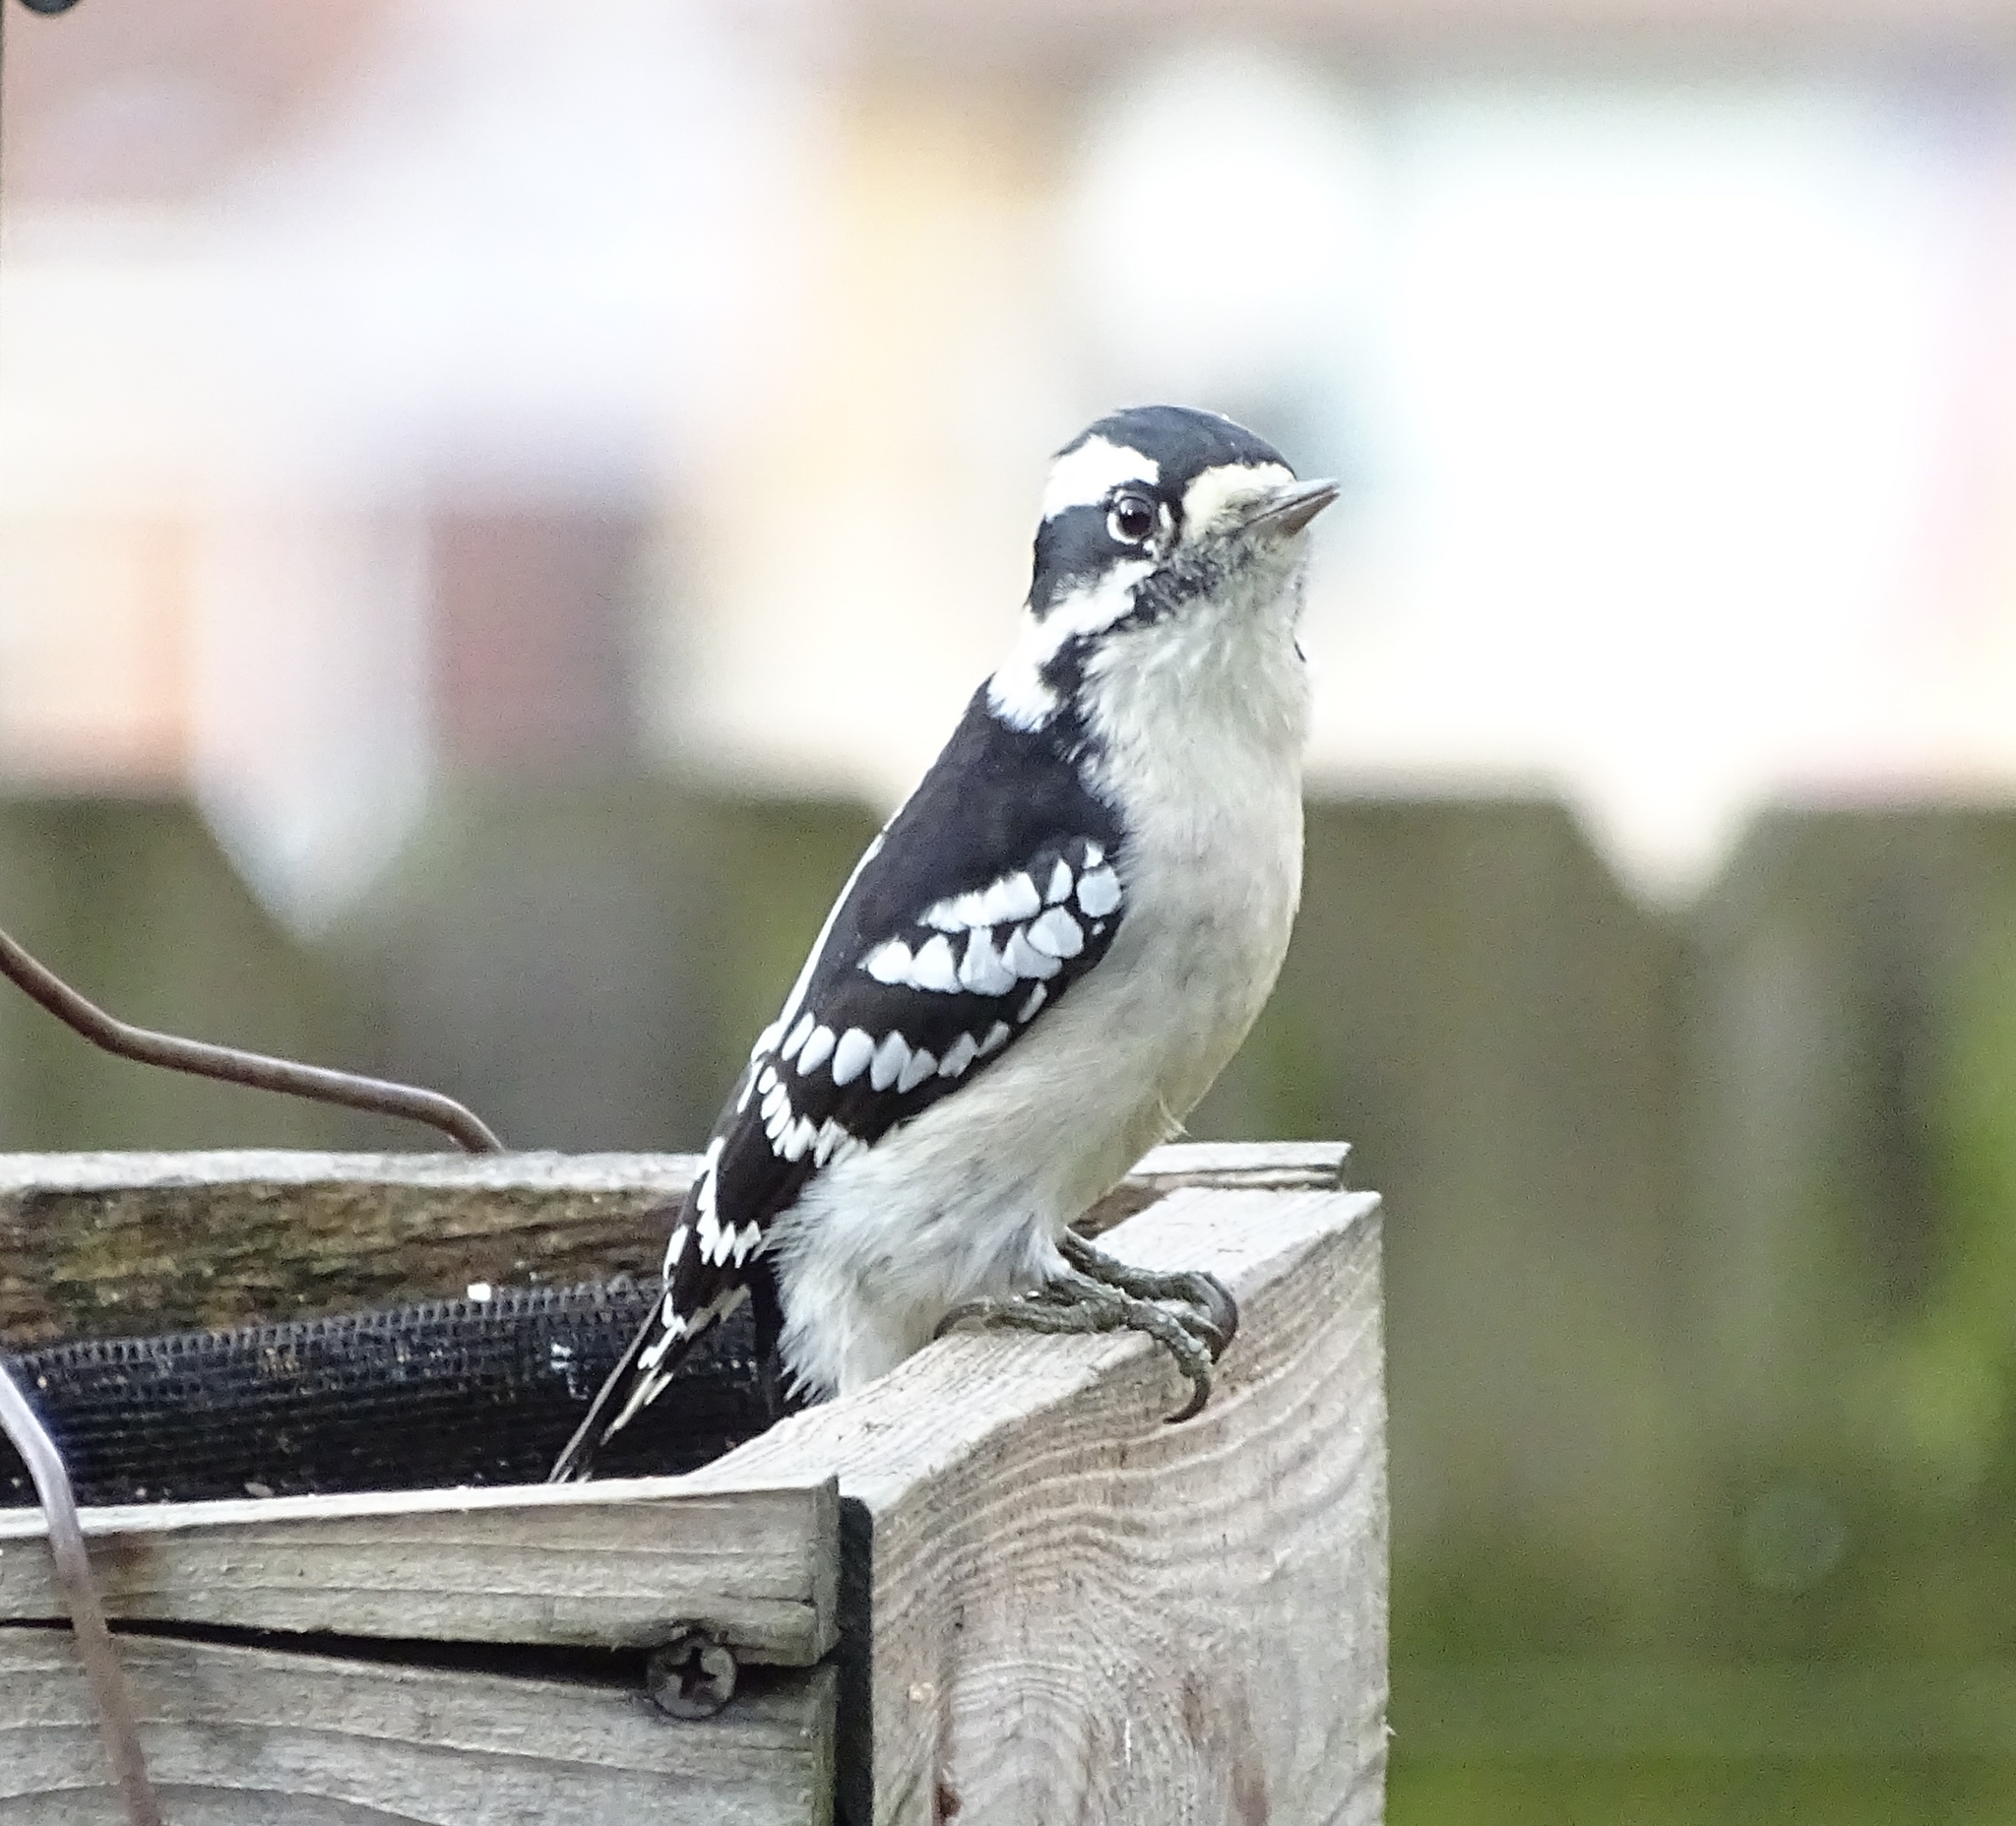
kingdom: Animalia
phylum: Chordata
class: Aves
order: Piciformes
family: Picidae
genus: Dryobates
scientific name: Dryobates pubescens
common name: Downy woodpecker
